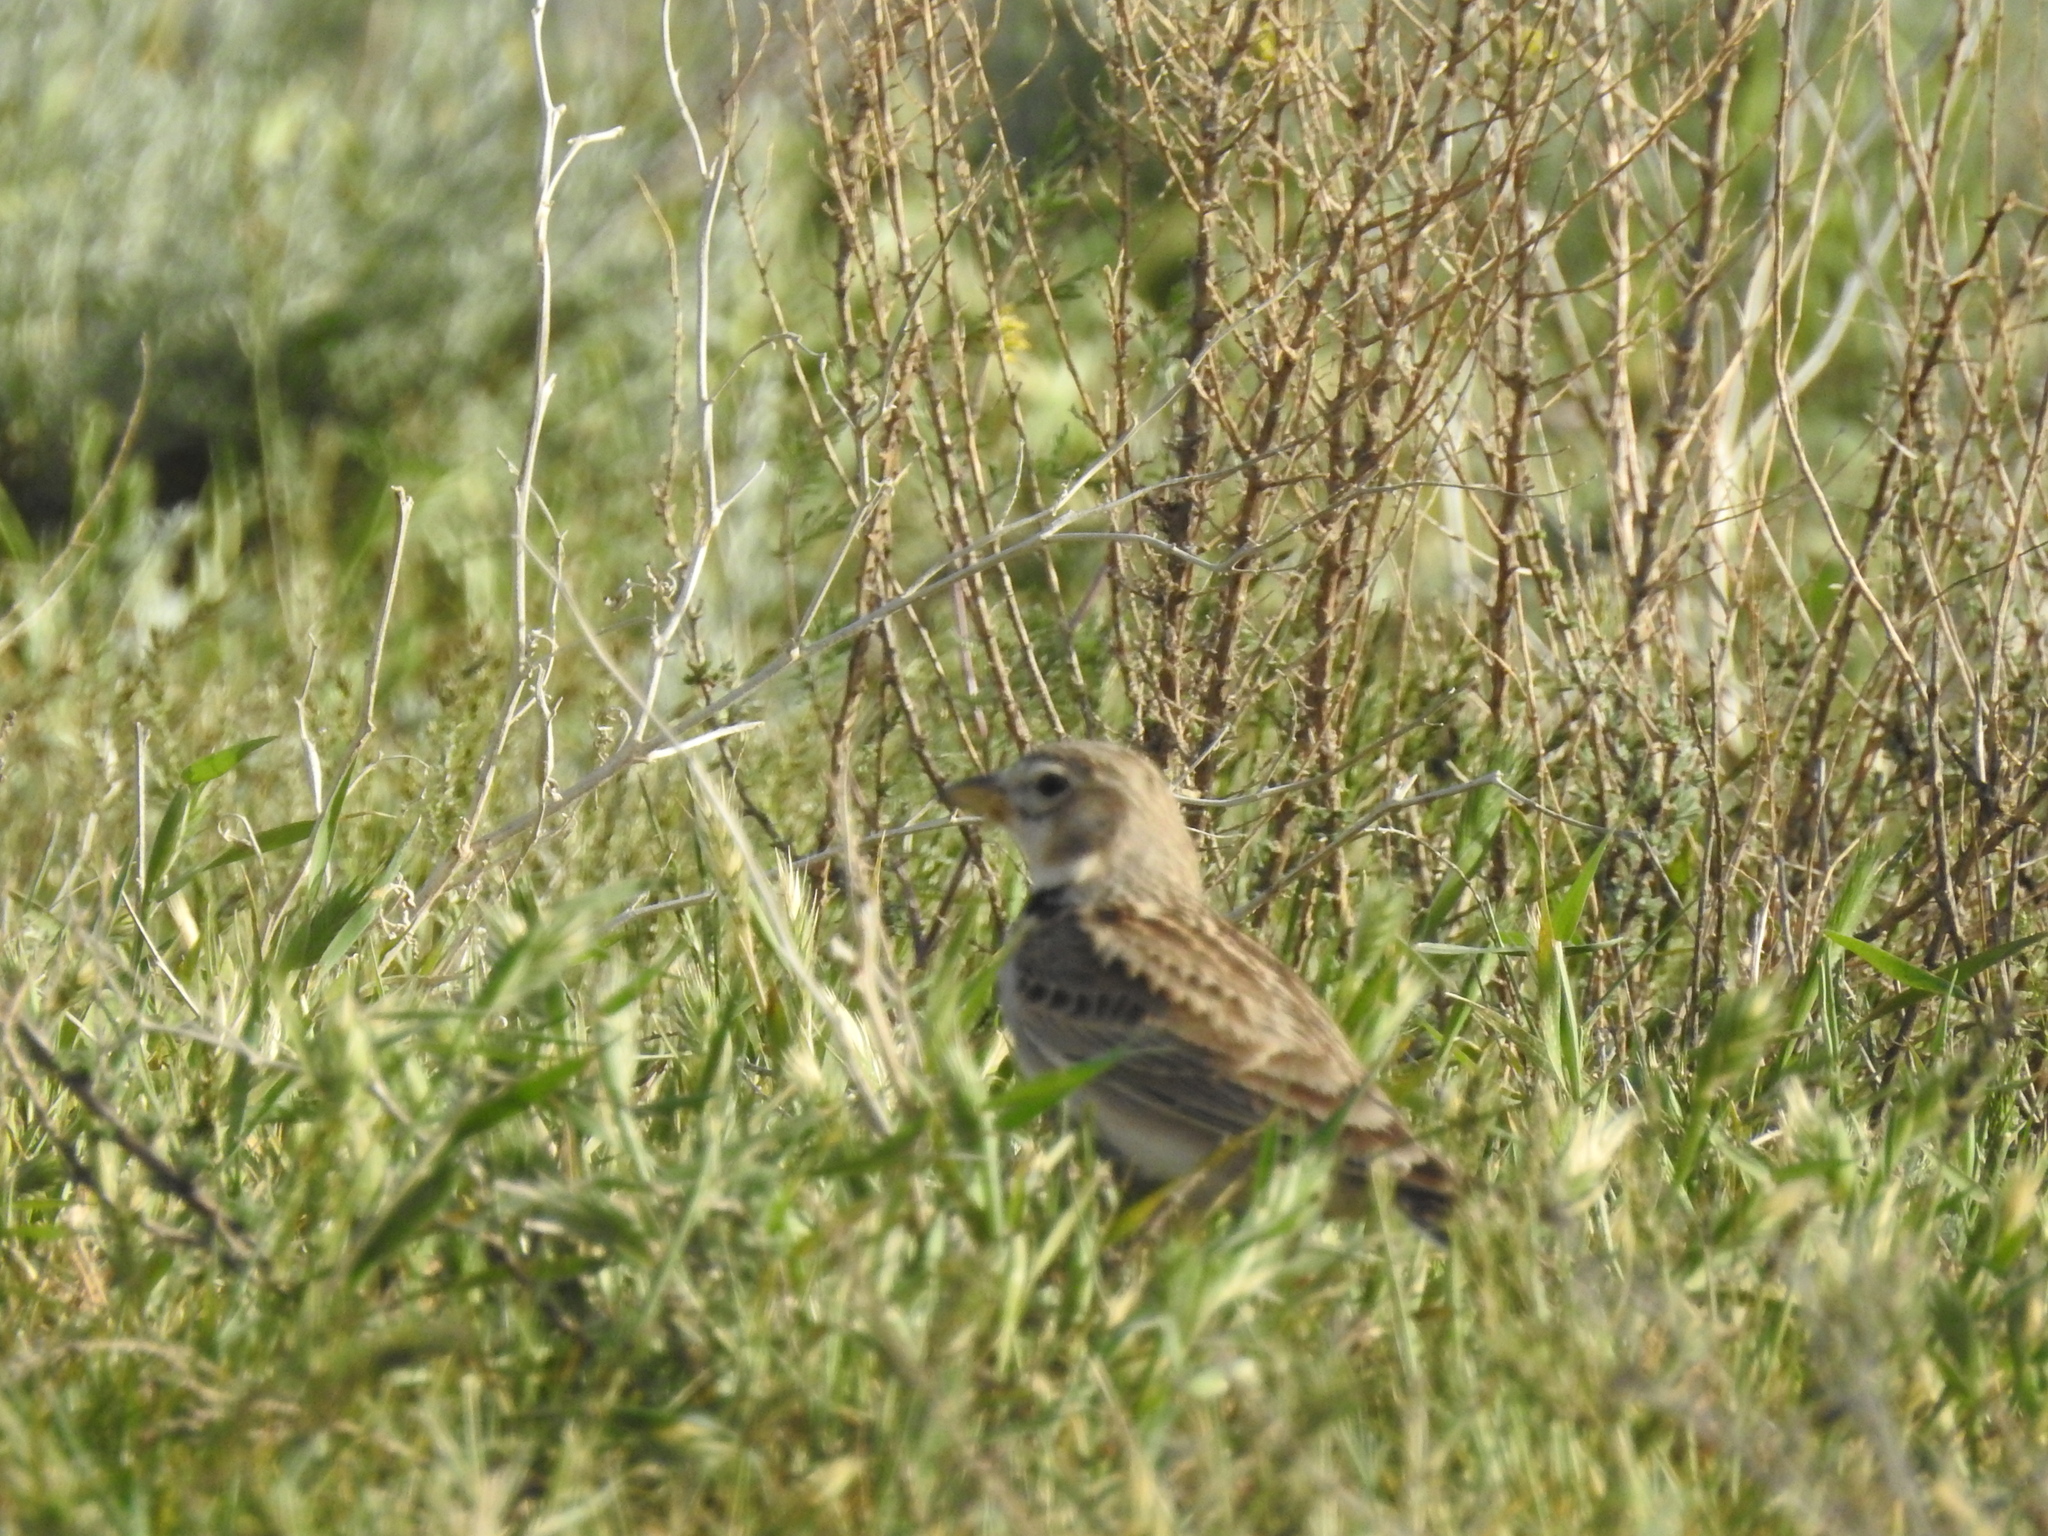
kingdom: Animalia
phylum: Chordata
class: Aves
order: Passeriformes
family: Alaudidae
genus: Melanocorypha
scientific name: Melanocorypha calandra
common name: Calandra lark
